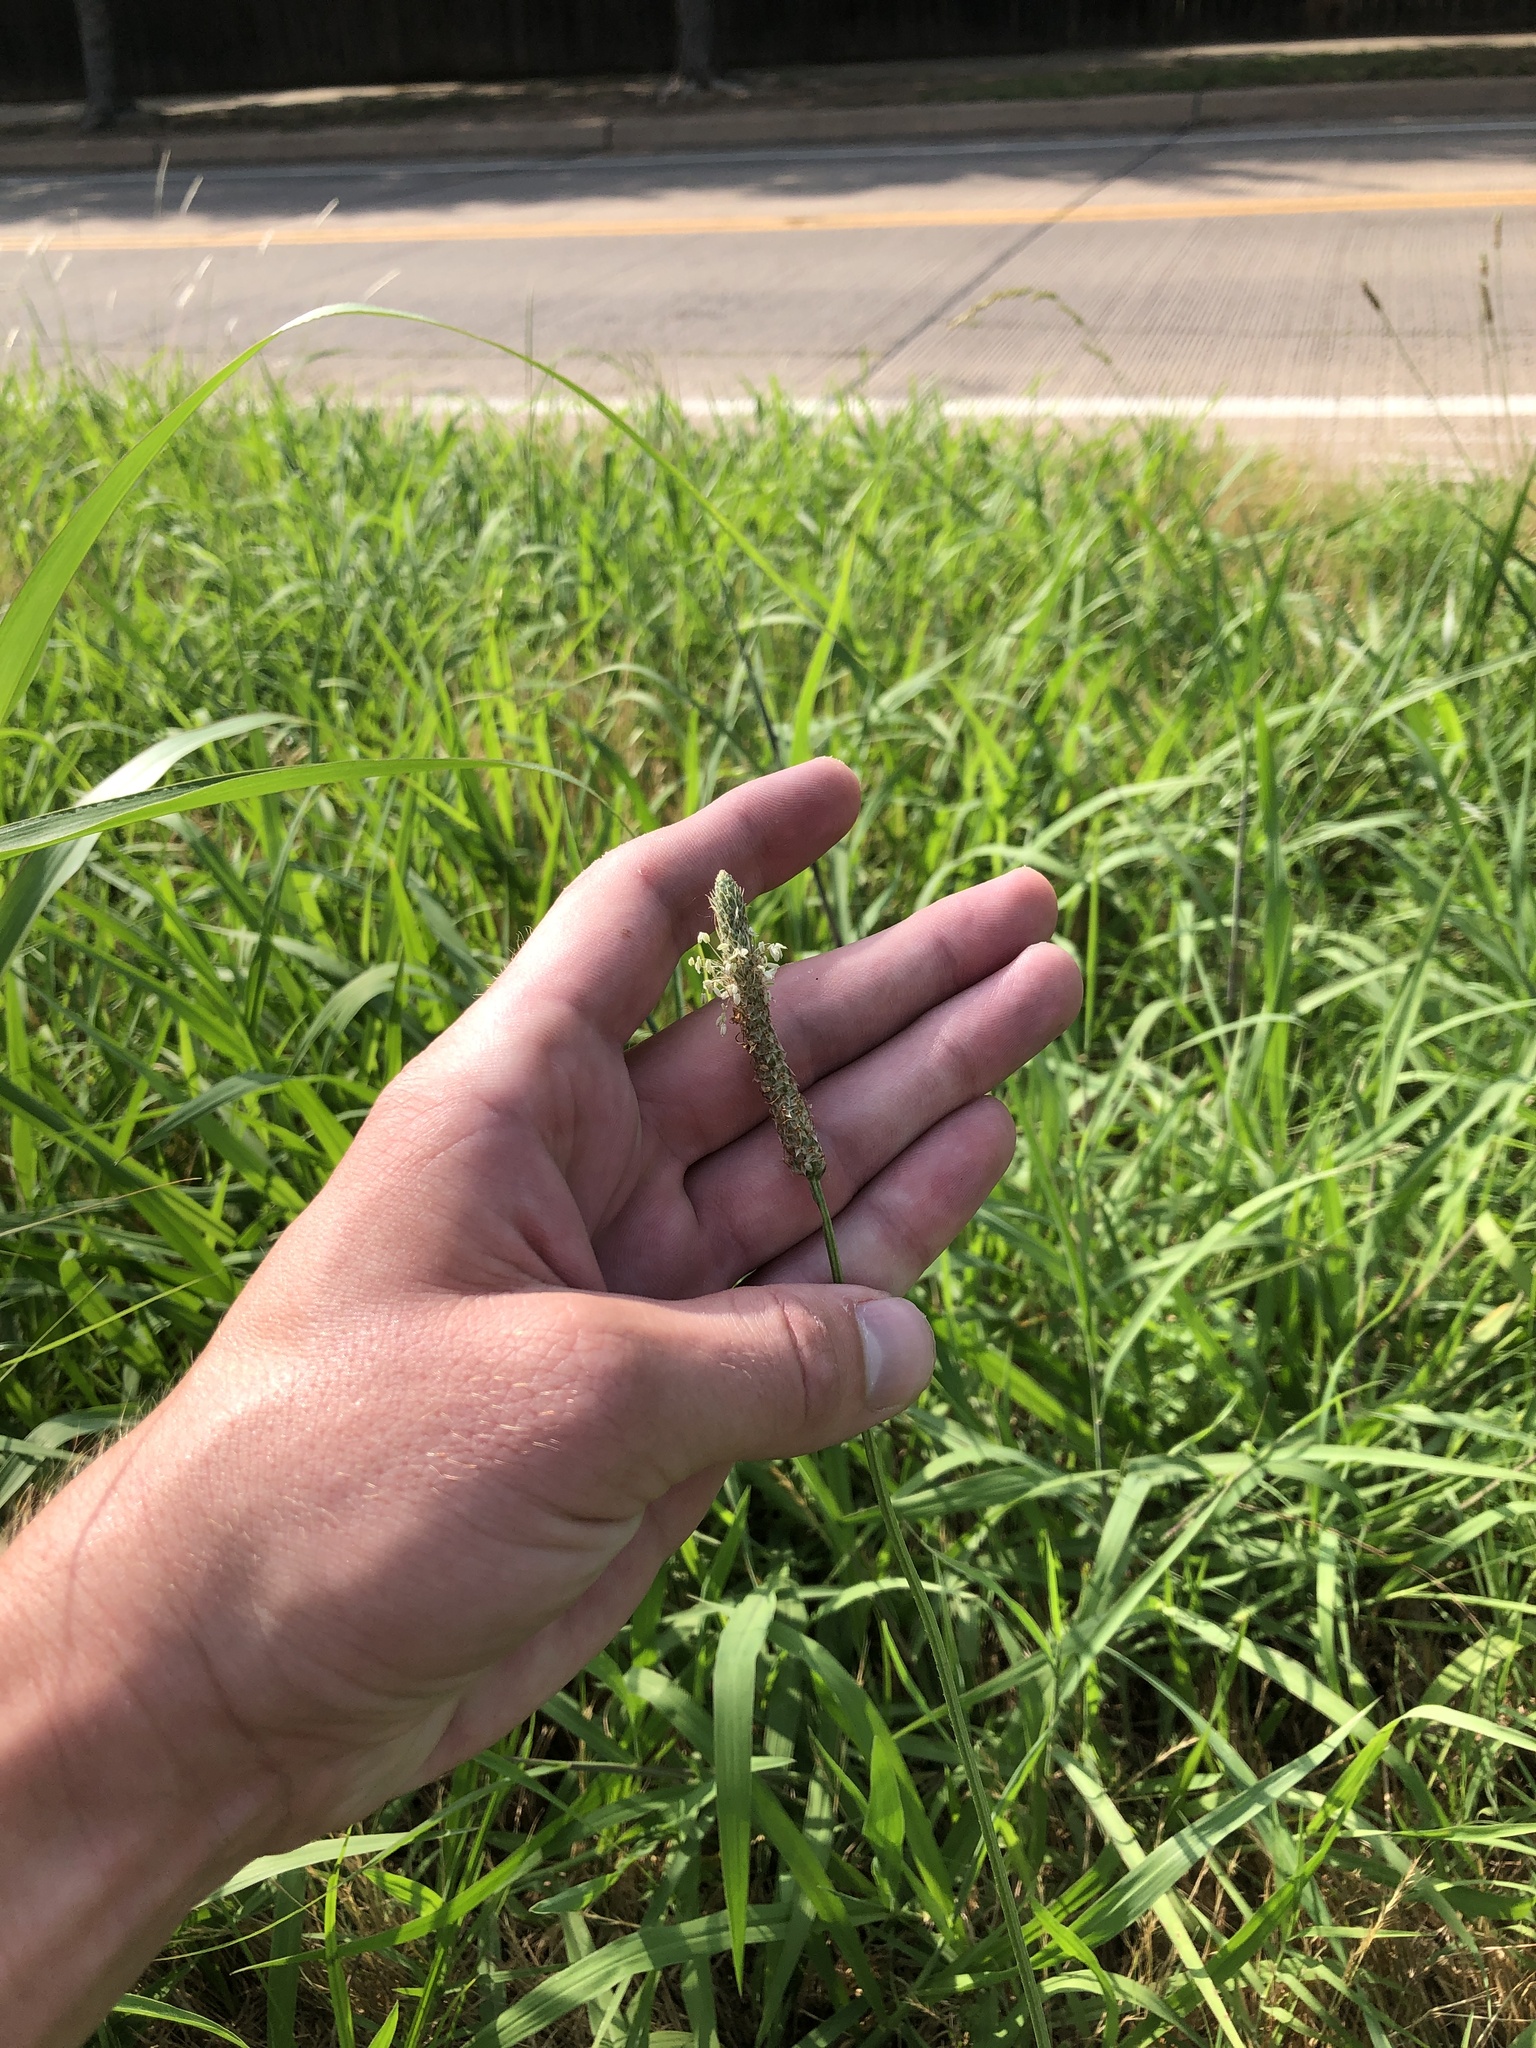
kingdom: Plantae
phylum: Tracheophyta
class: Magnoliopsida
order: Lamiales
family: Plantaginaceae
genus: Plantago
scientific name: Plantago lanceolata
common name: Ribwort plantain
